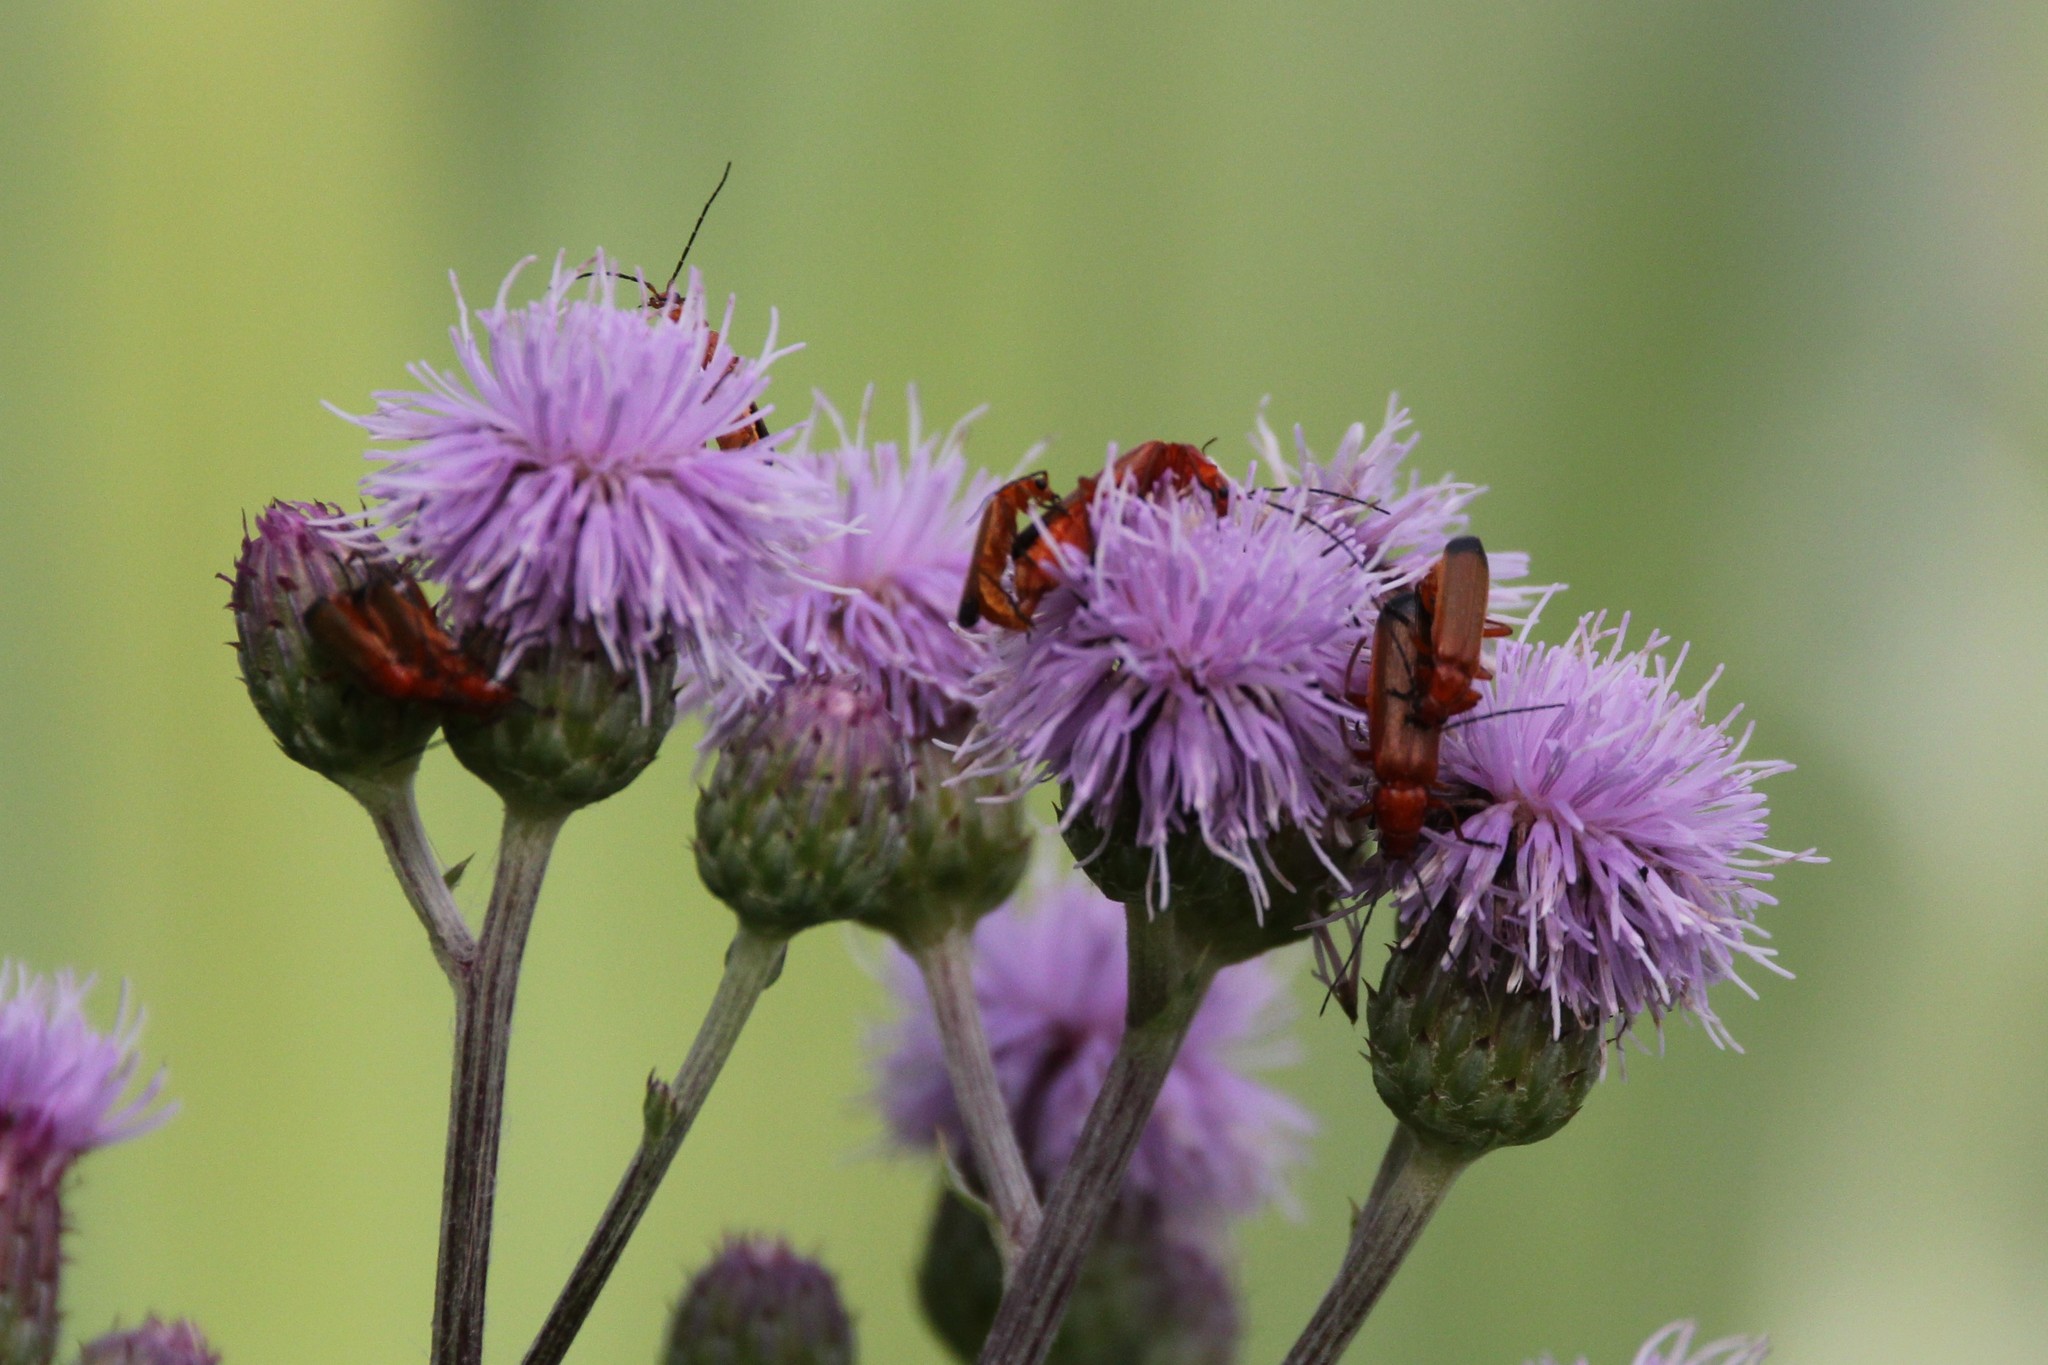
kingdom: Animalia
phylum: Arthropoda
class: Insecta
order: Coleoptera
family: Cantharidae
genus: Rhagonycha
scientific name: Rhagonycha fulva
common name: Common red soldier beetle
